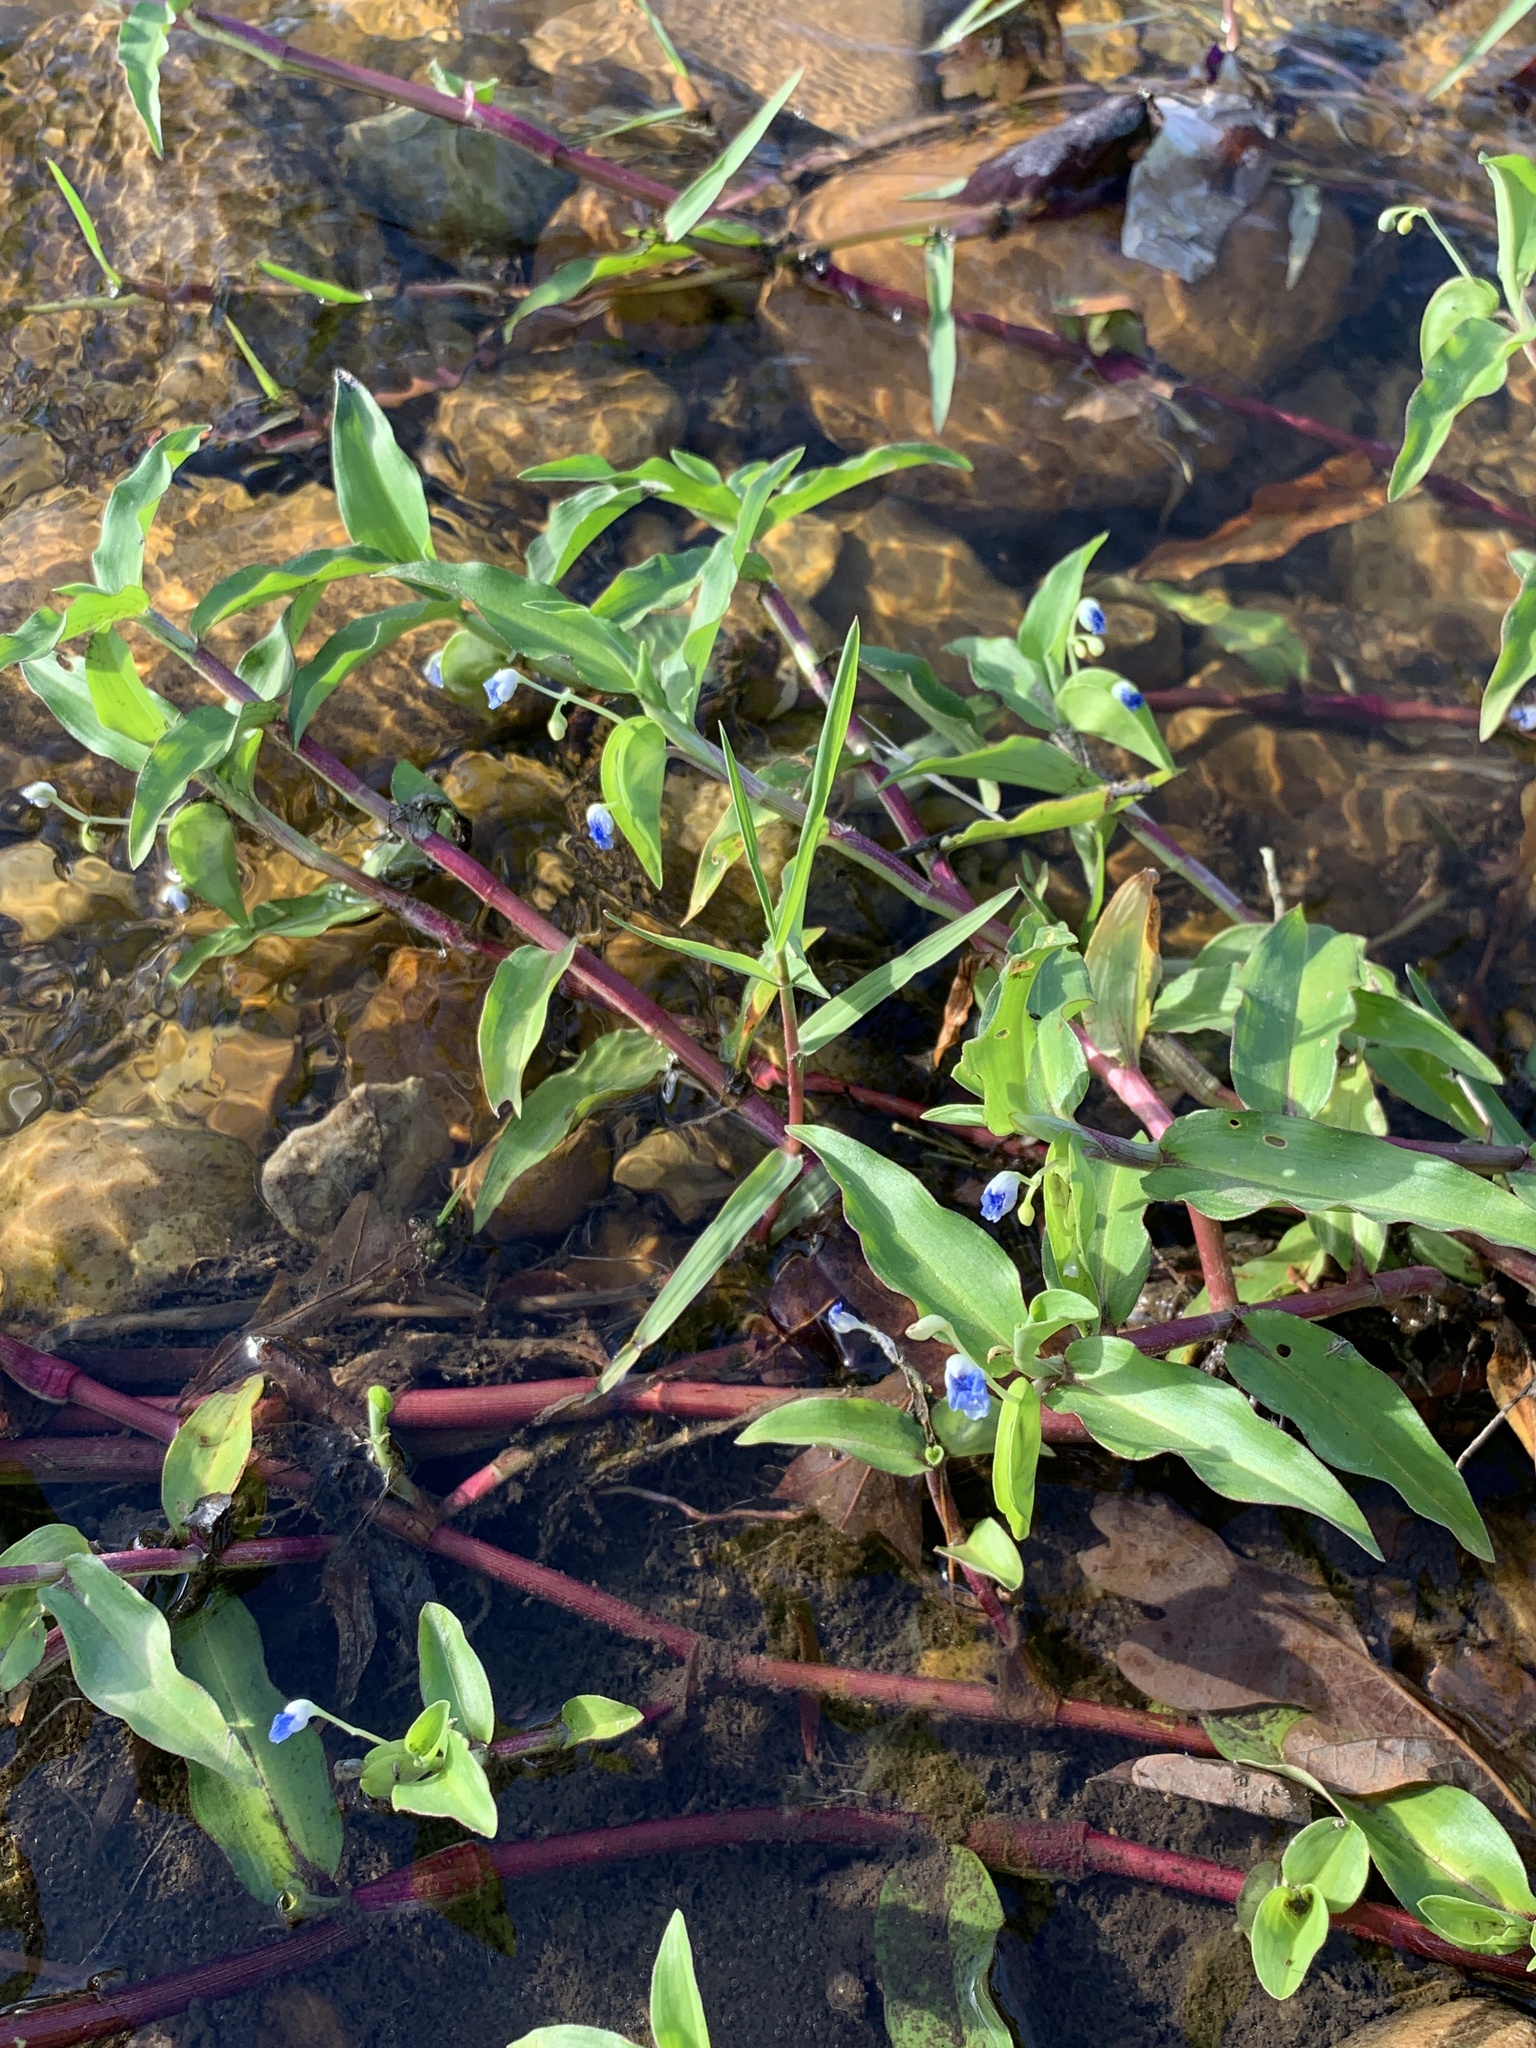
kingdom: Plantae
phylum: Tracheophyta
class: Liliopsida
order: Commelinales
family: Commelinaceae
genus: Commelina
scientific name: Commelina diffusa
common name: Climbing dayflower
